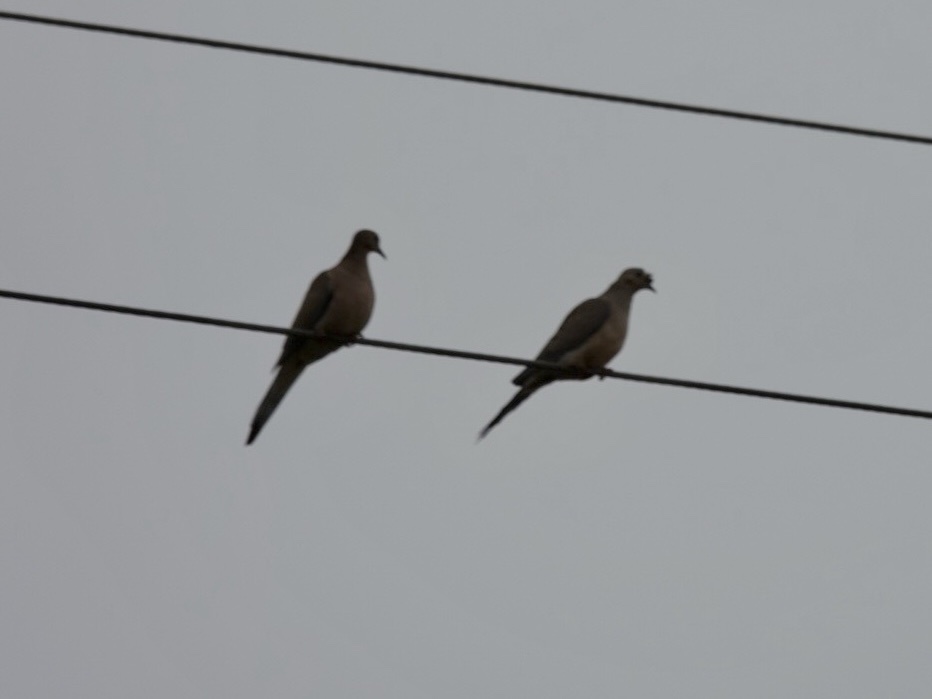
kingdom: Animalia
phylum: Chordata
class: Aves
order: Columbiformes
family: Columbidae
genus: Zenaida
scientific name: Zenaida macroura
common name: Mourning dove
